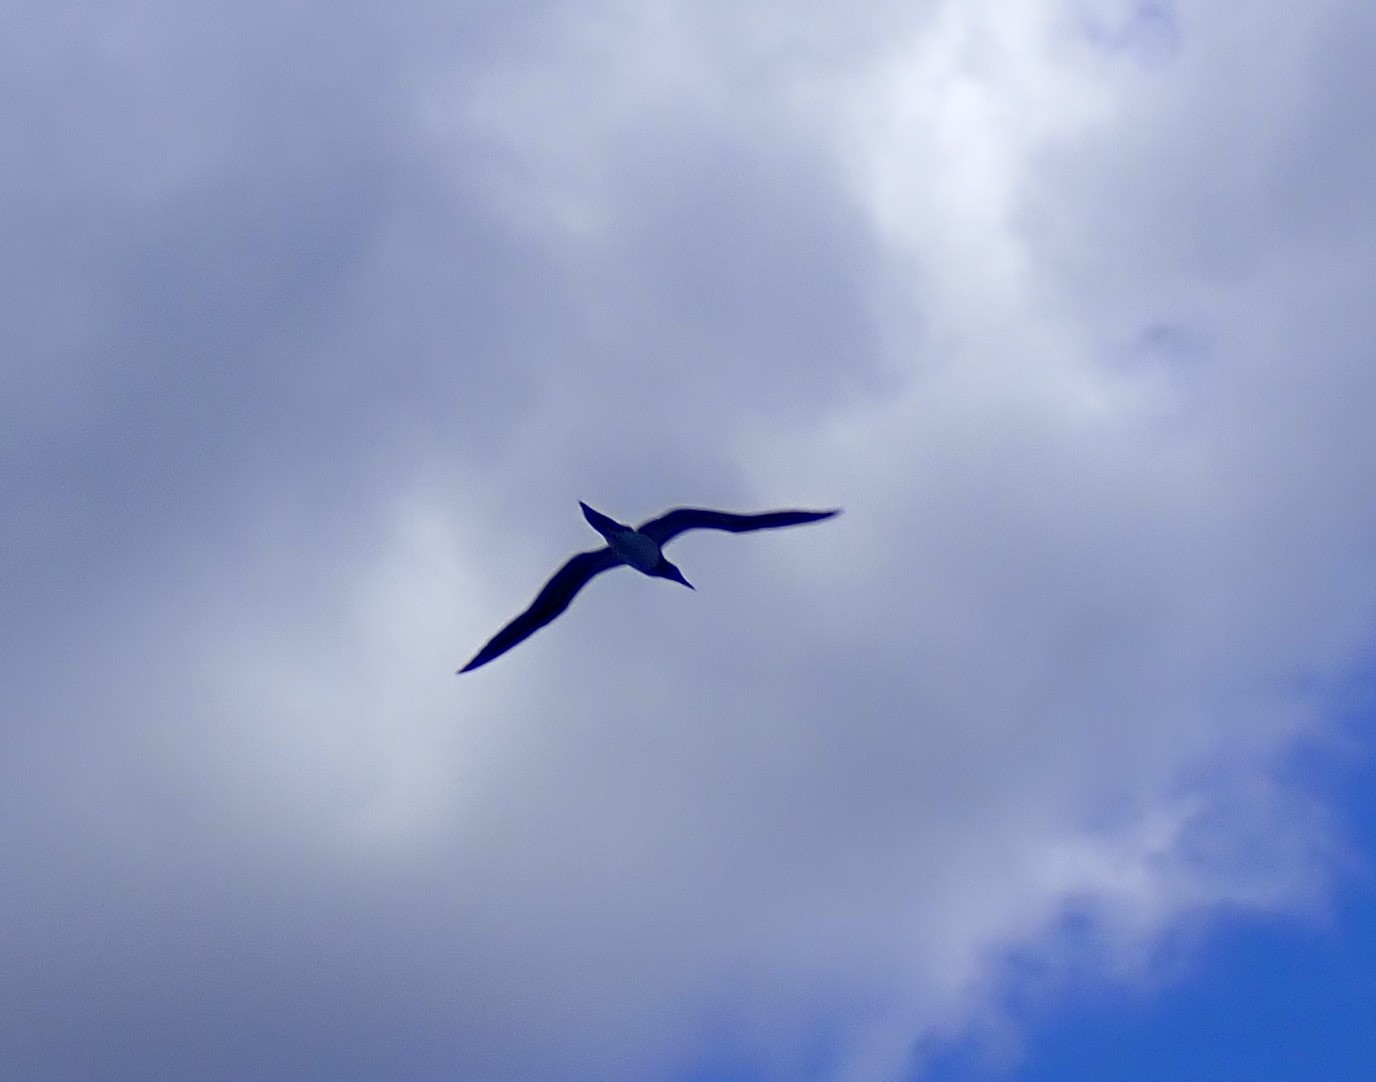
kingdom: Animalia
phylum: Chordata
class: Aves
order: Suliformes
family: Sulidae
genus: Sula
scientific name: Sula leucogaster
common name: Brown booby
